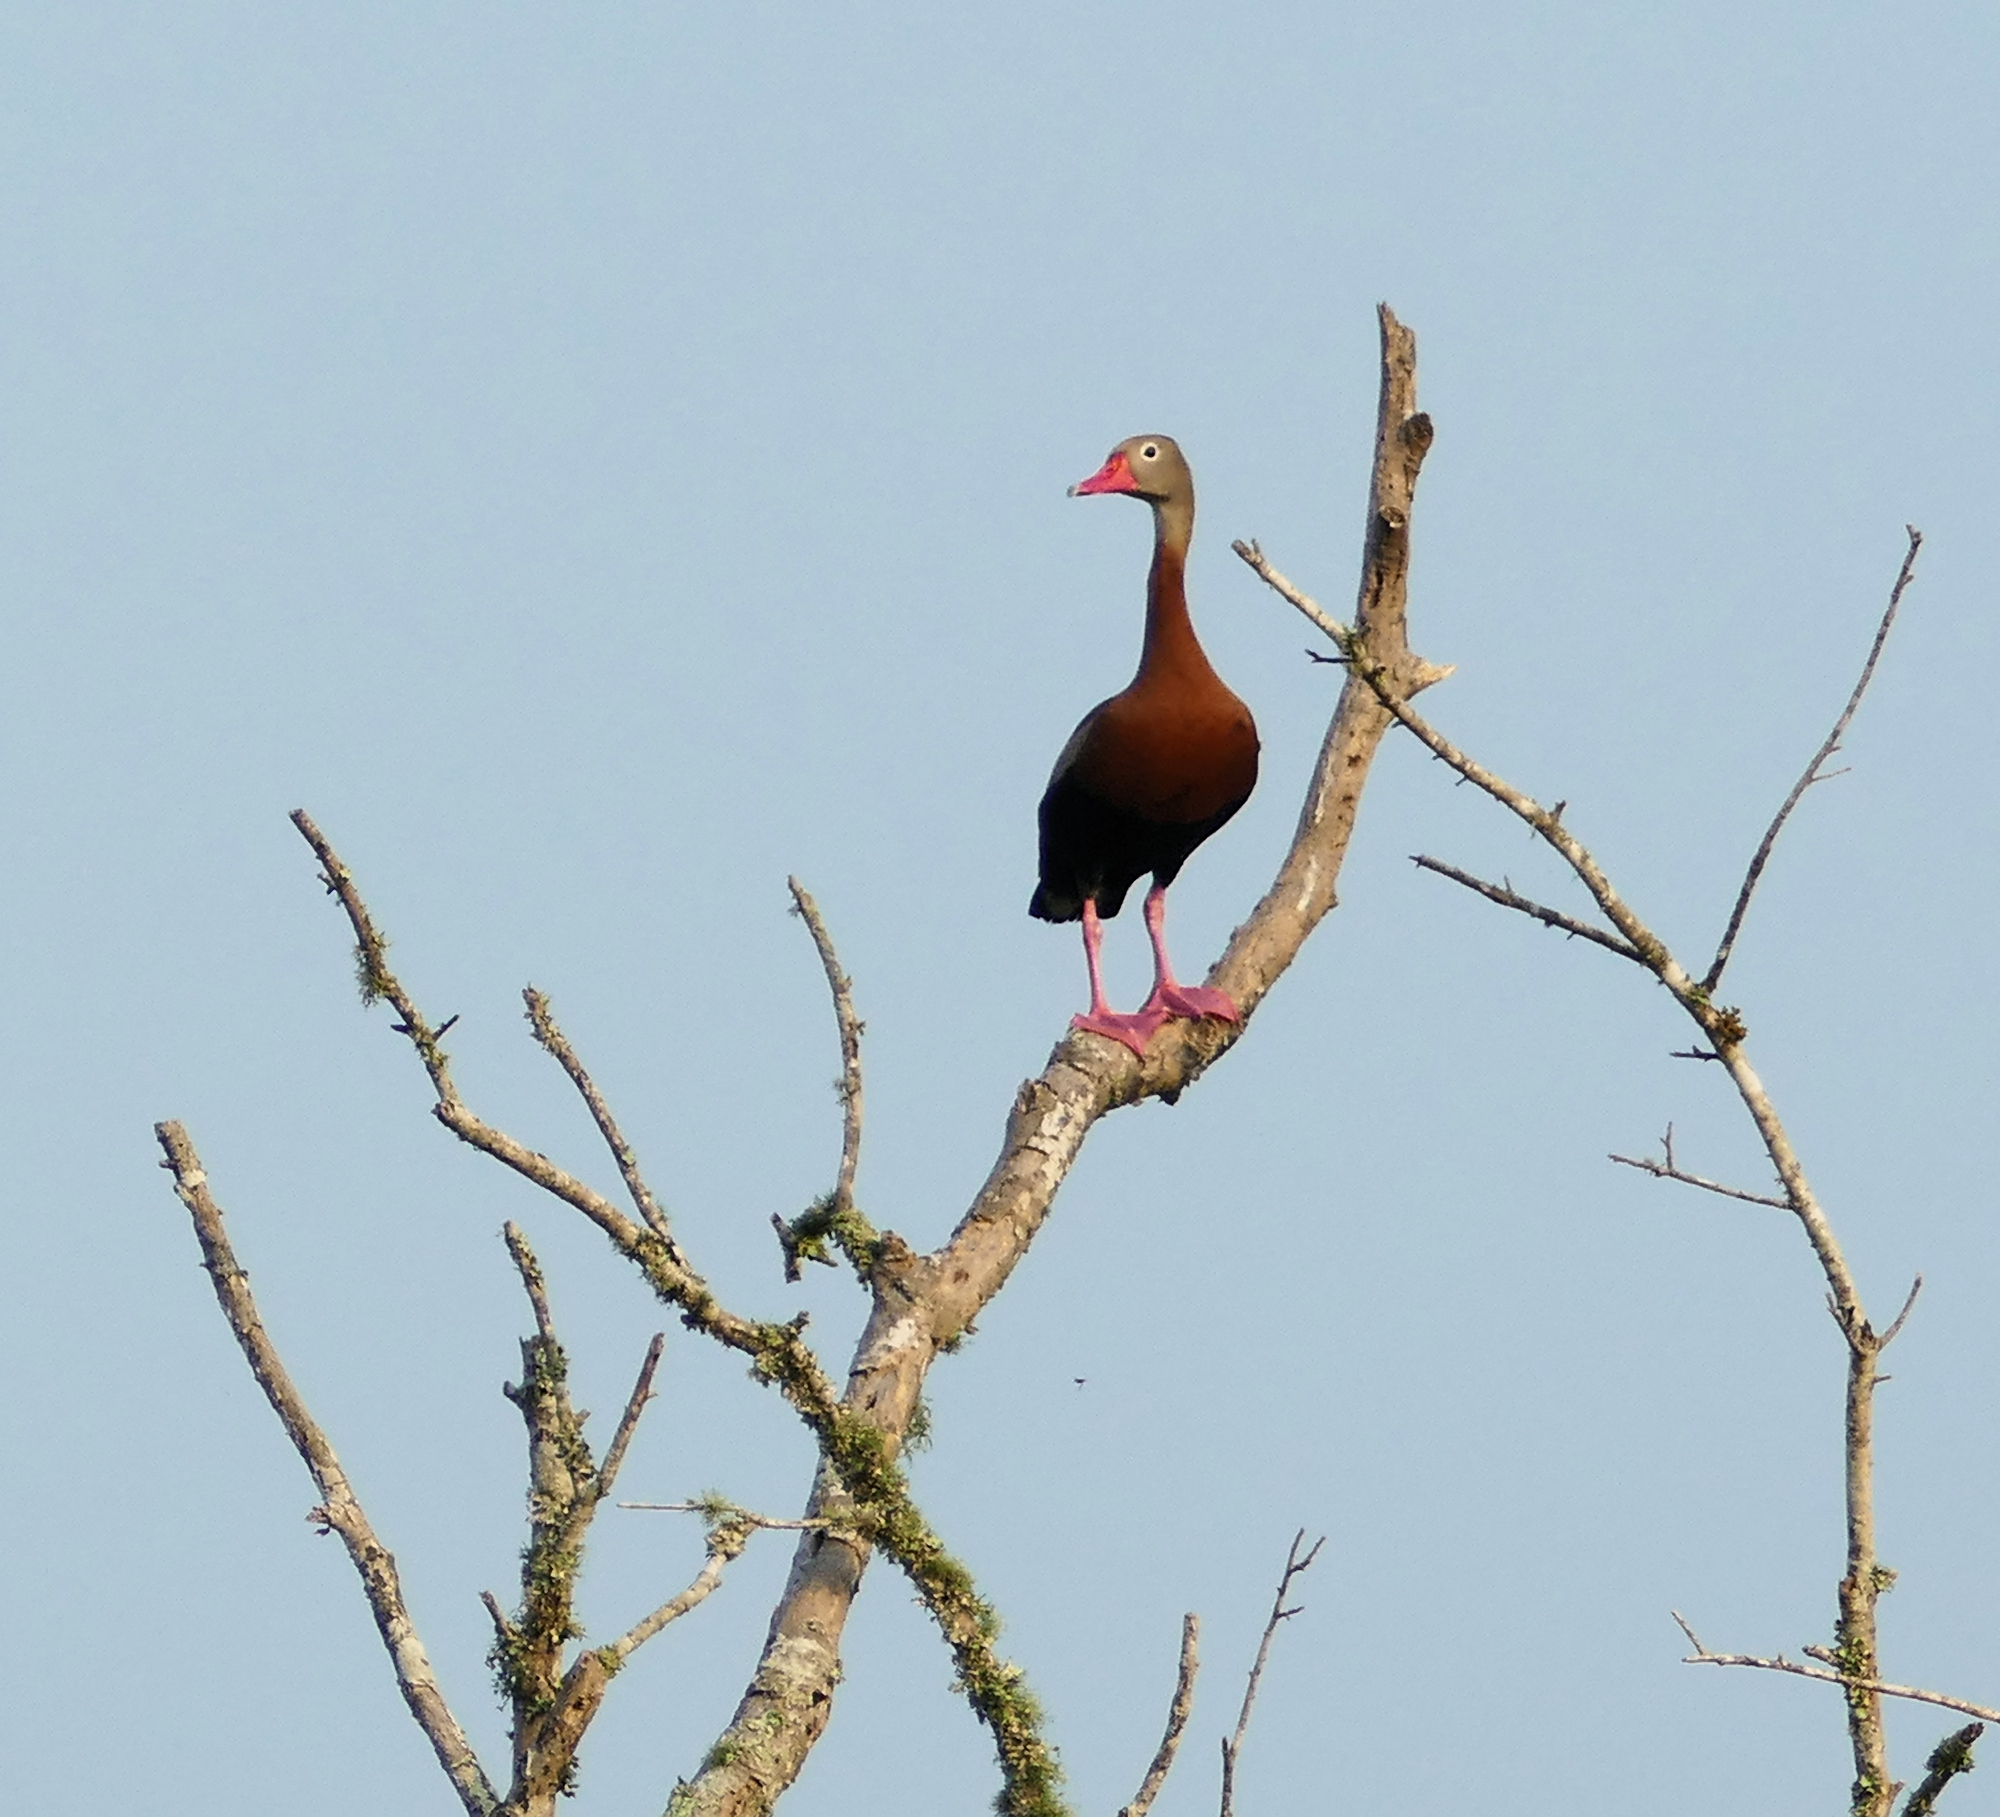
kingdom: Animalia
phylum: Chordata
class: Aves
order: Anseriformes
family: Anatidae
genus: Dendrocygna
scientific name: Dendrocygna autumnalis
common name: Black-bellied whistling duck
